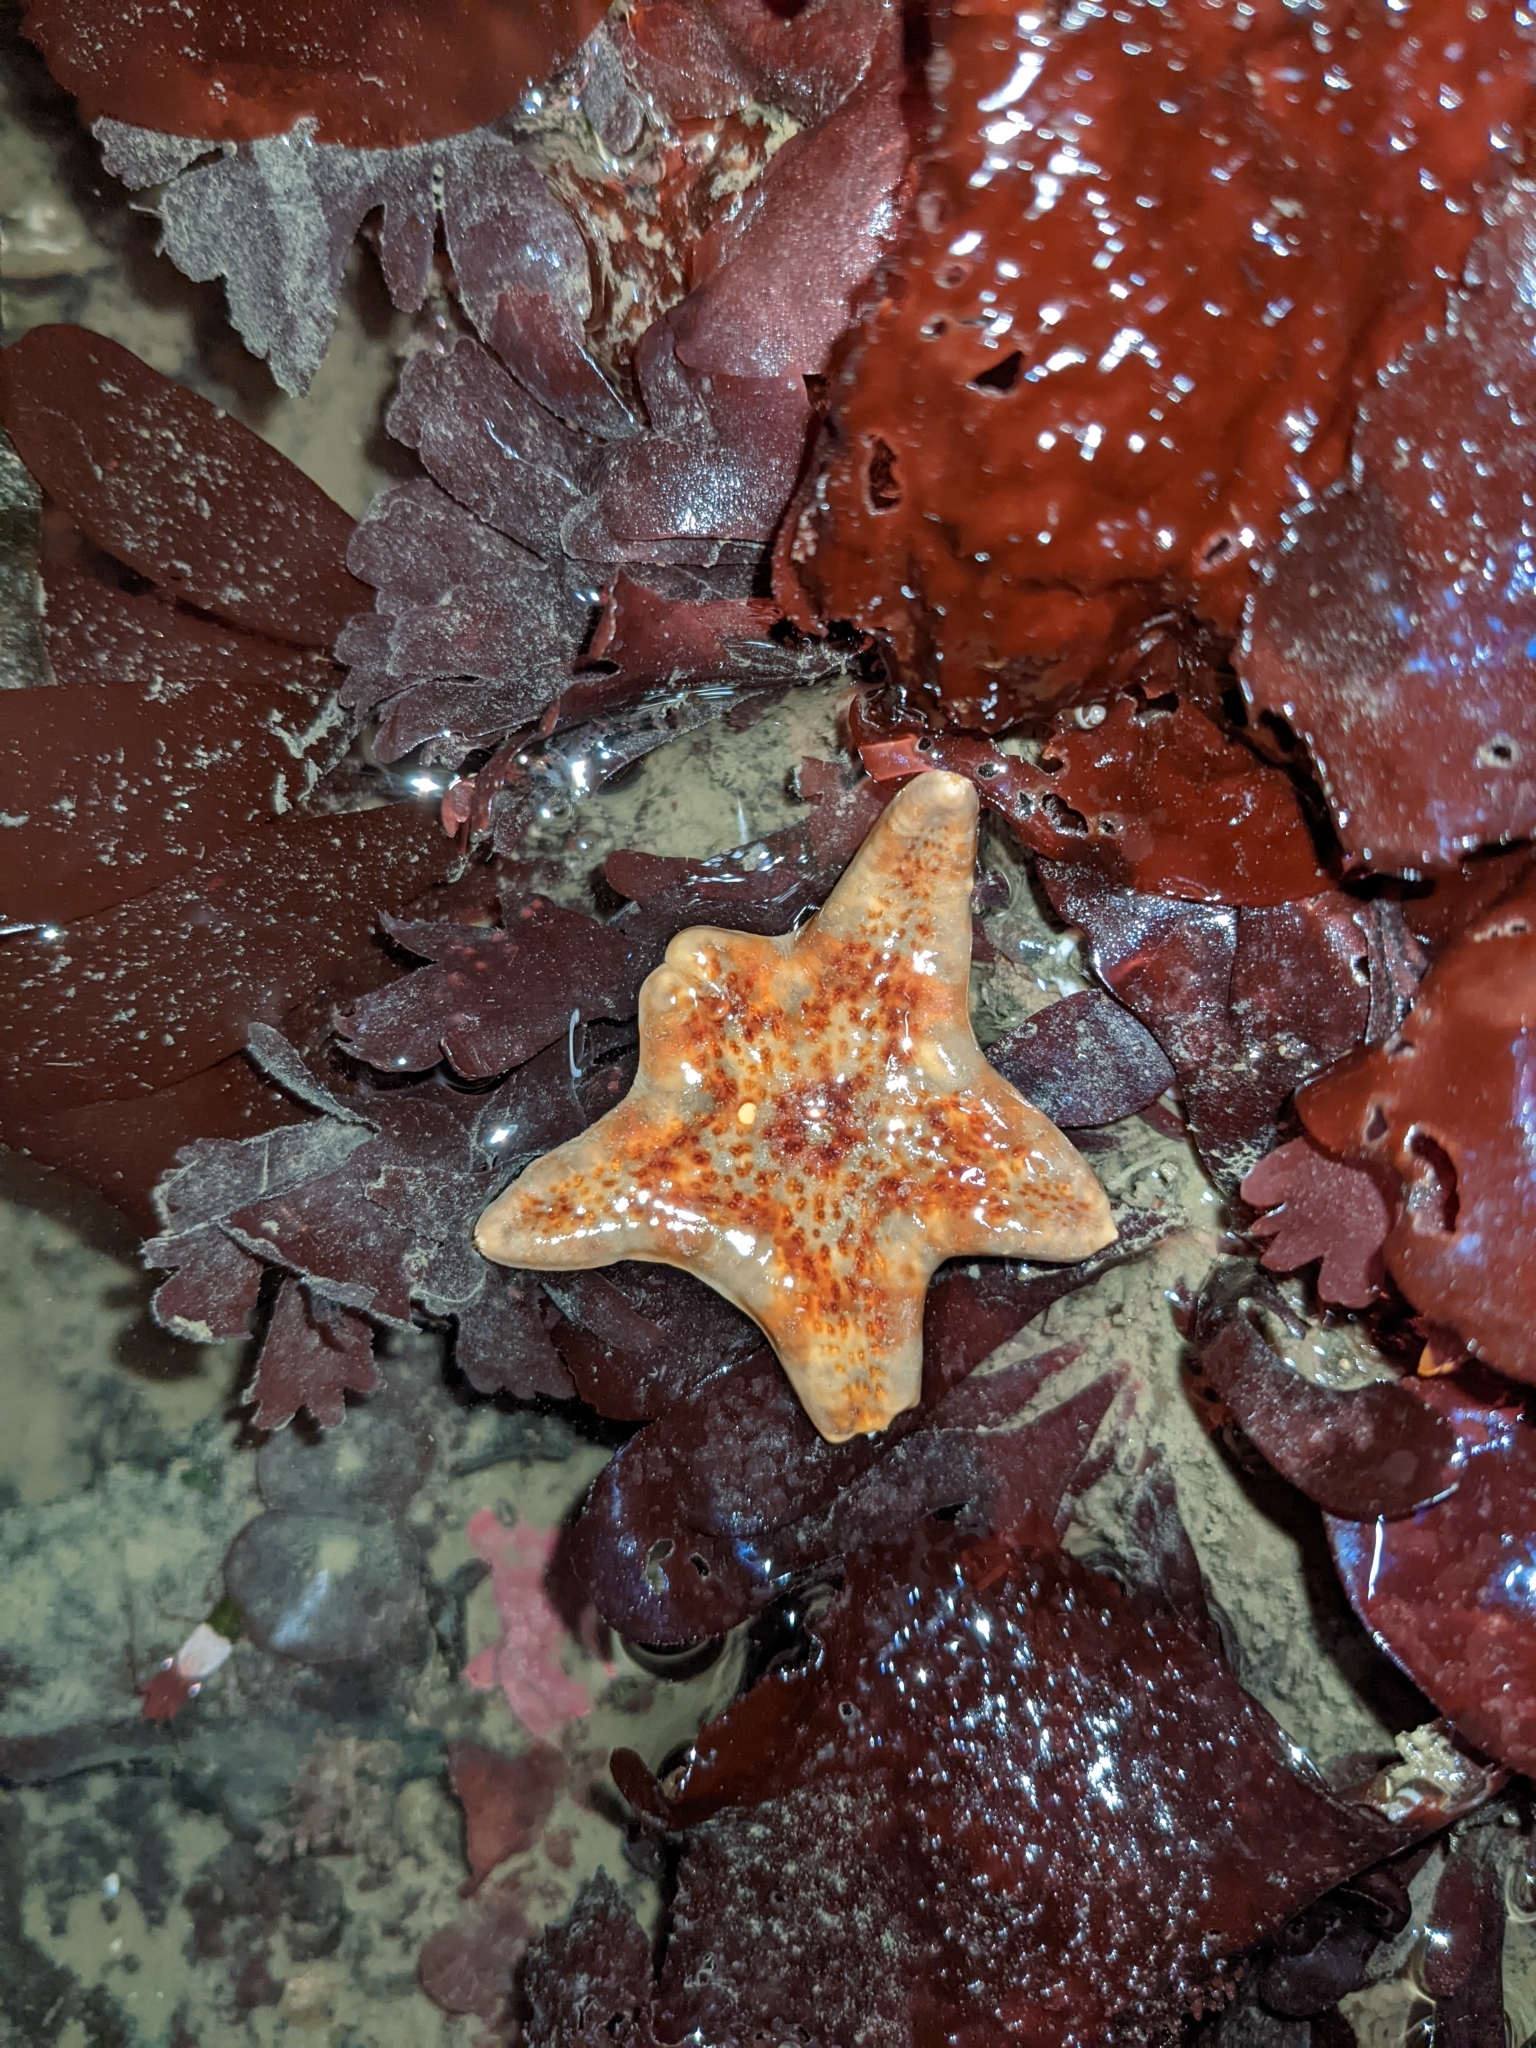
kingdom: Animalia
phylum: Echinodermata
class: Asteroidea
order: Valvatida
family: Asteropseidae
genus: Dermasterias
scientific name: Dermasterias imbricata
